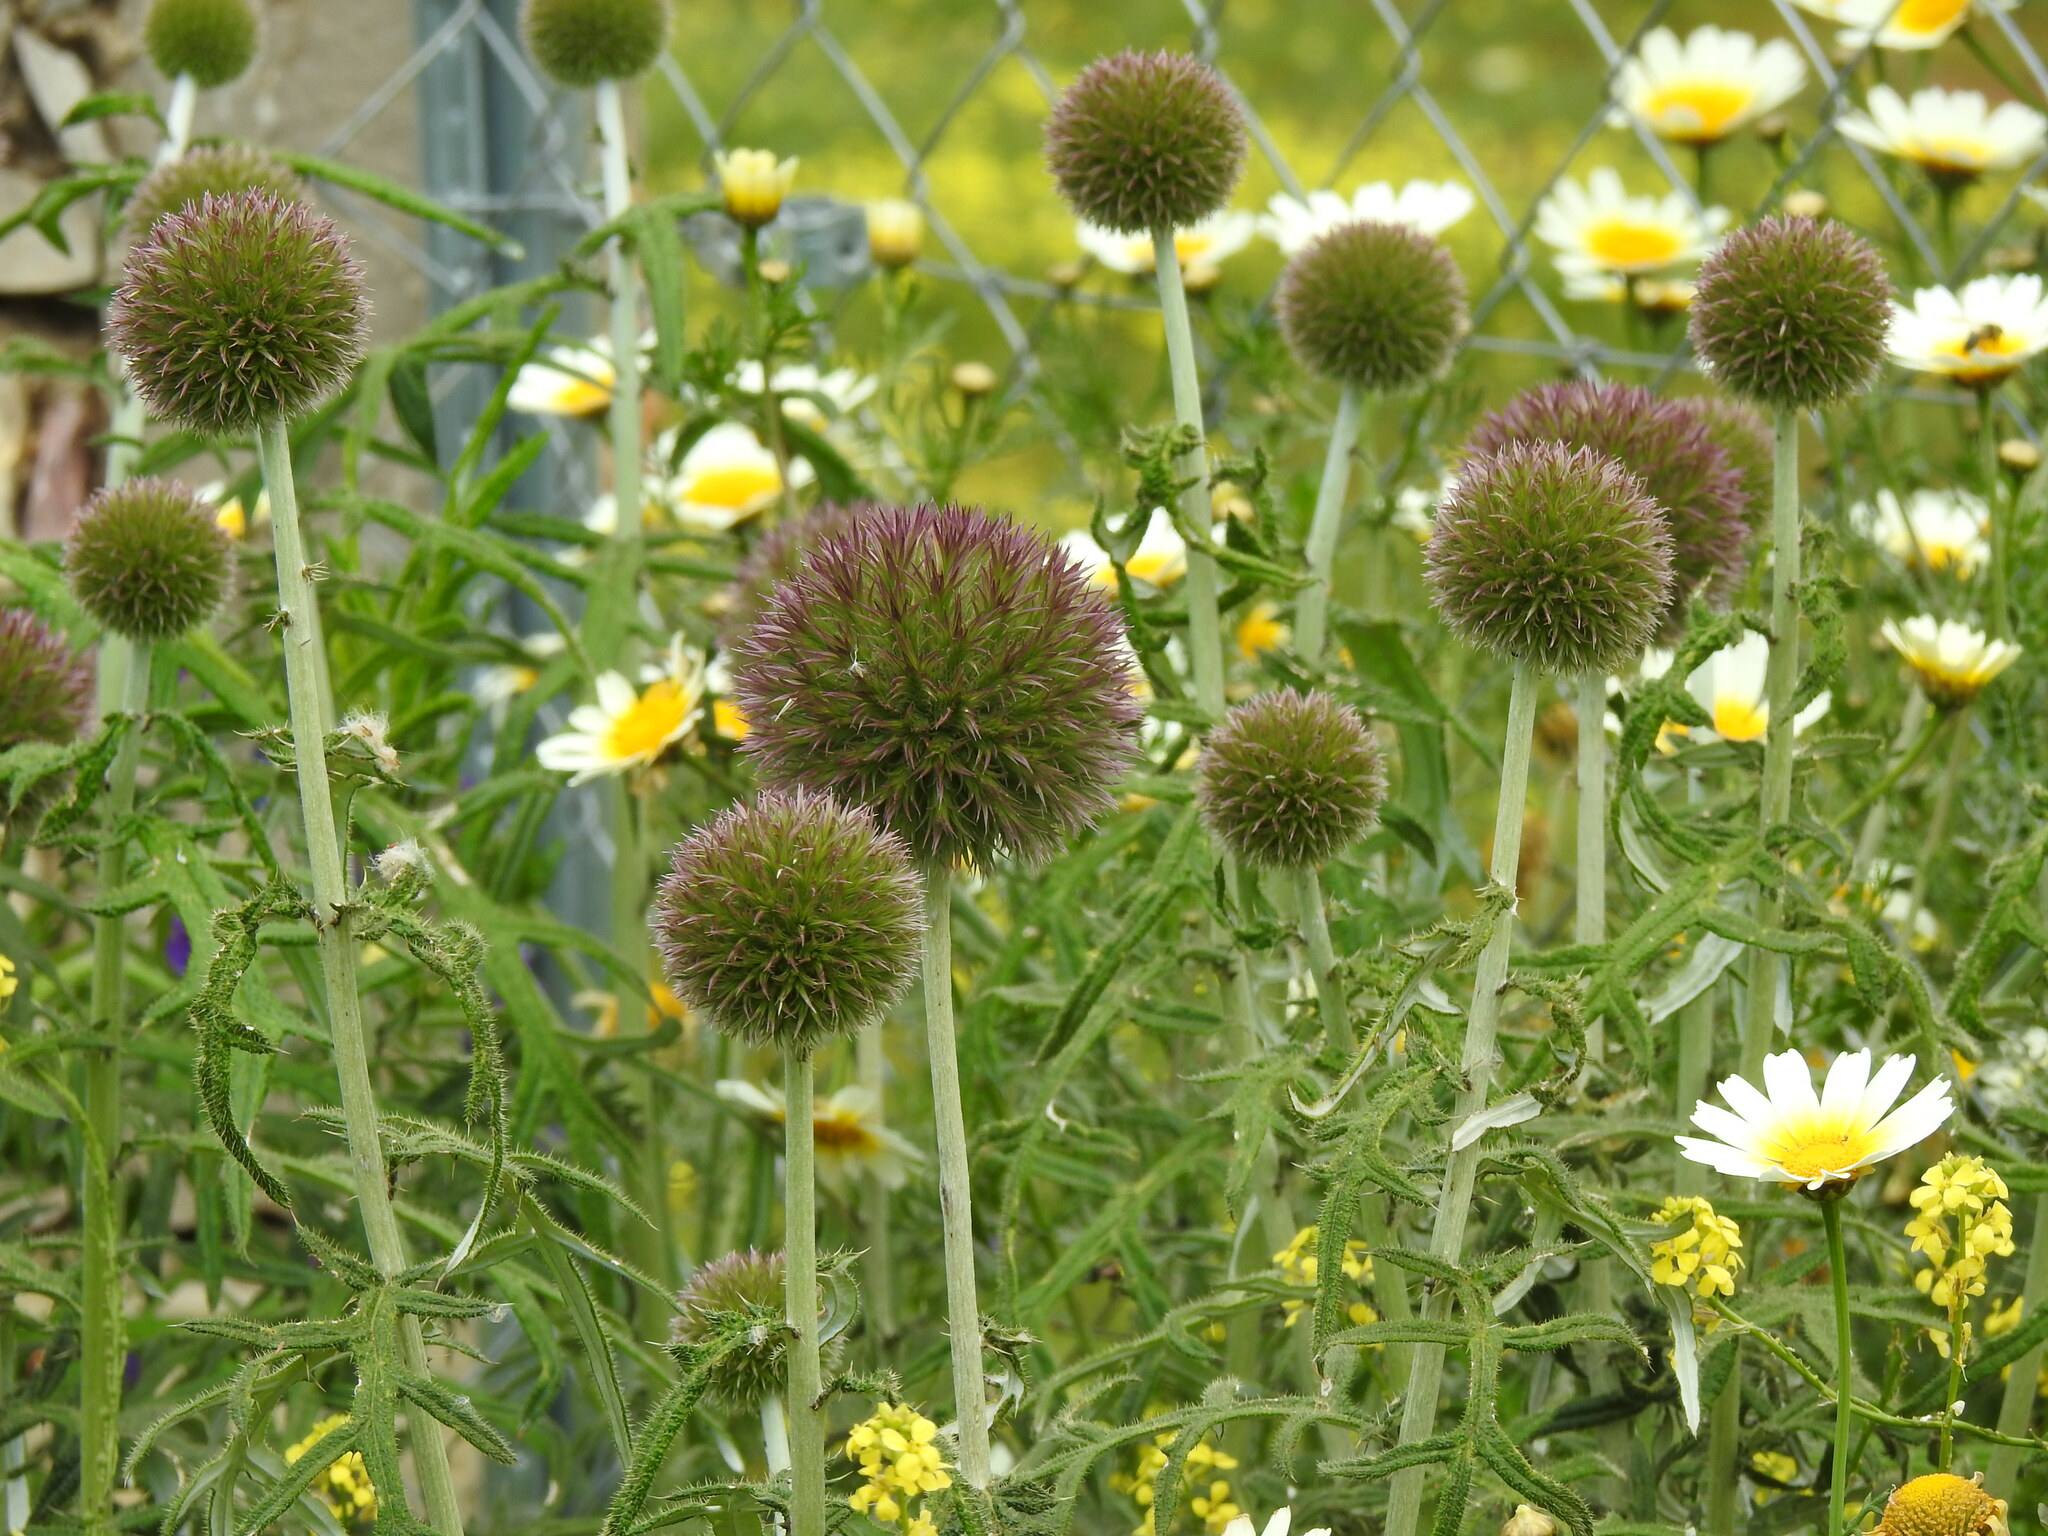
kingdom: Plantae
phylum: Tracheophyta
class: Magnoliopsida
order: Asterales
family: Asteraceae
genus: Echinops
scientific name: Echinops strigosus
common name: Rough-leaf globe thistle
